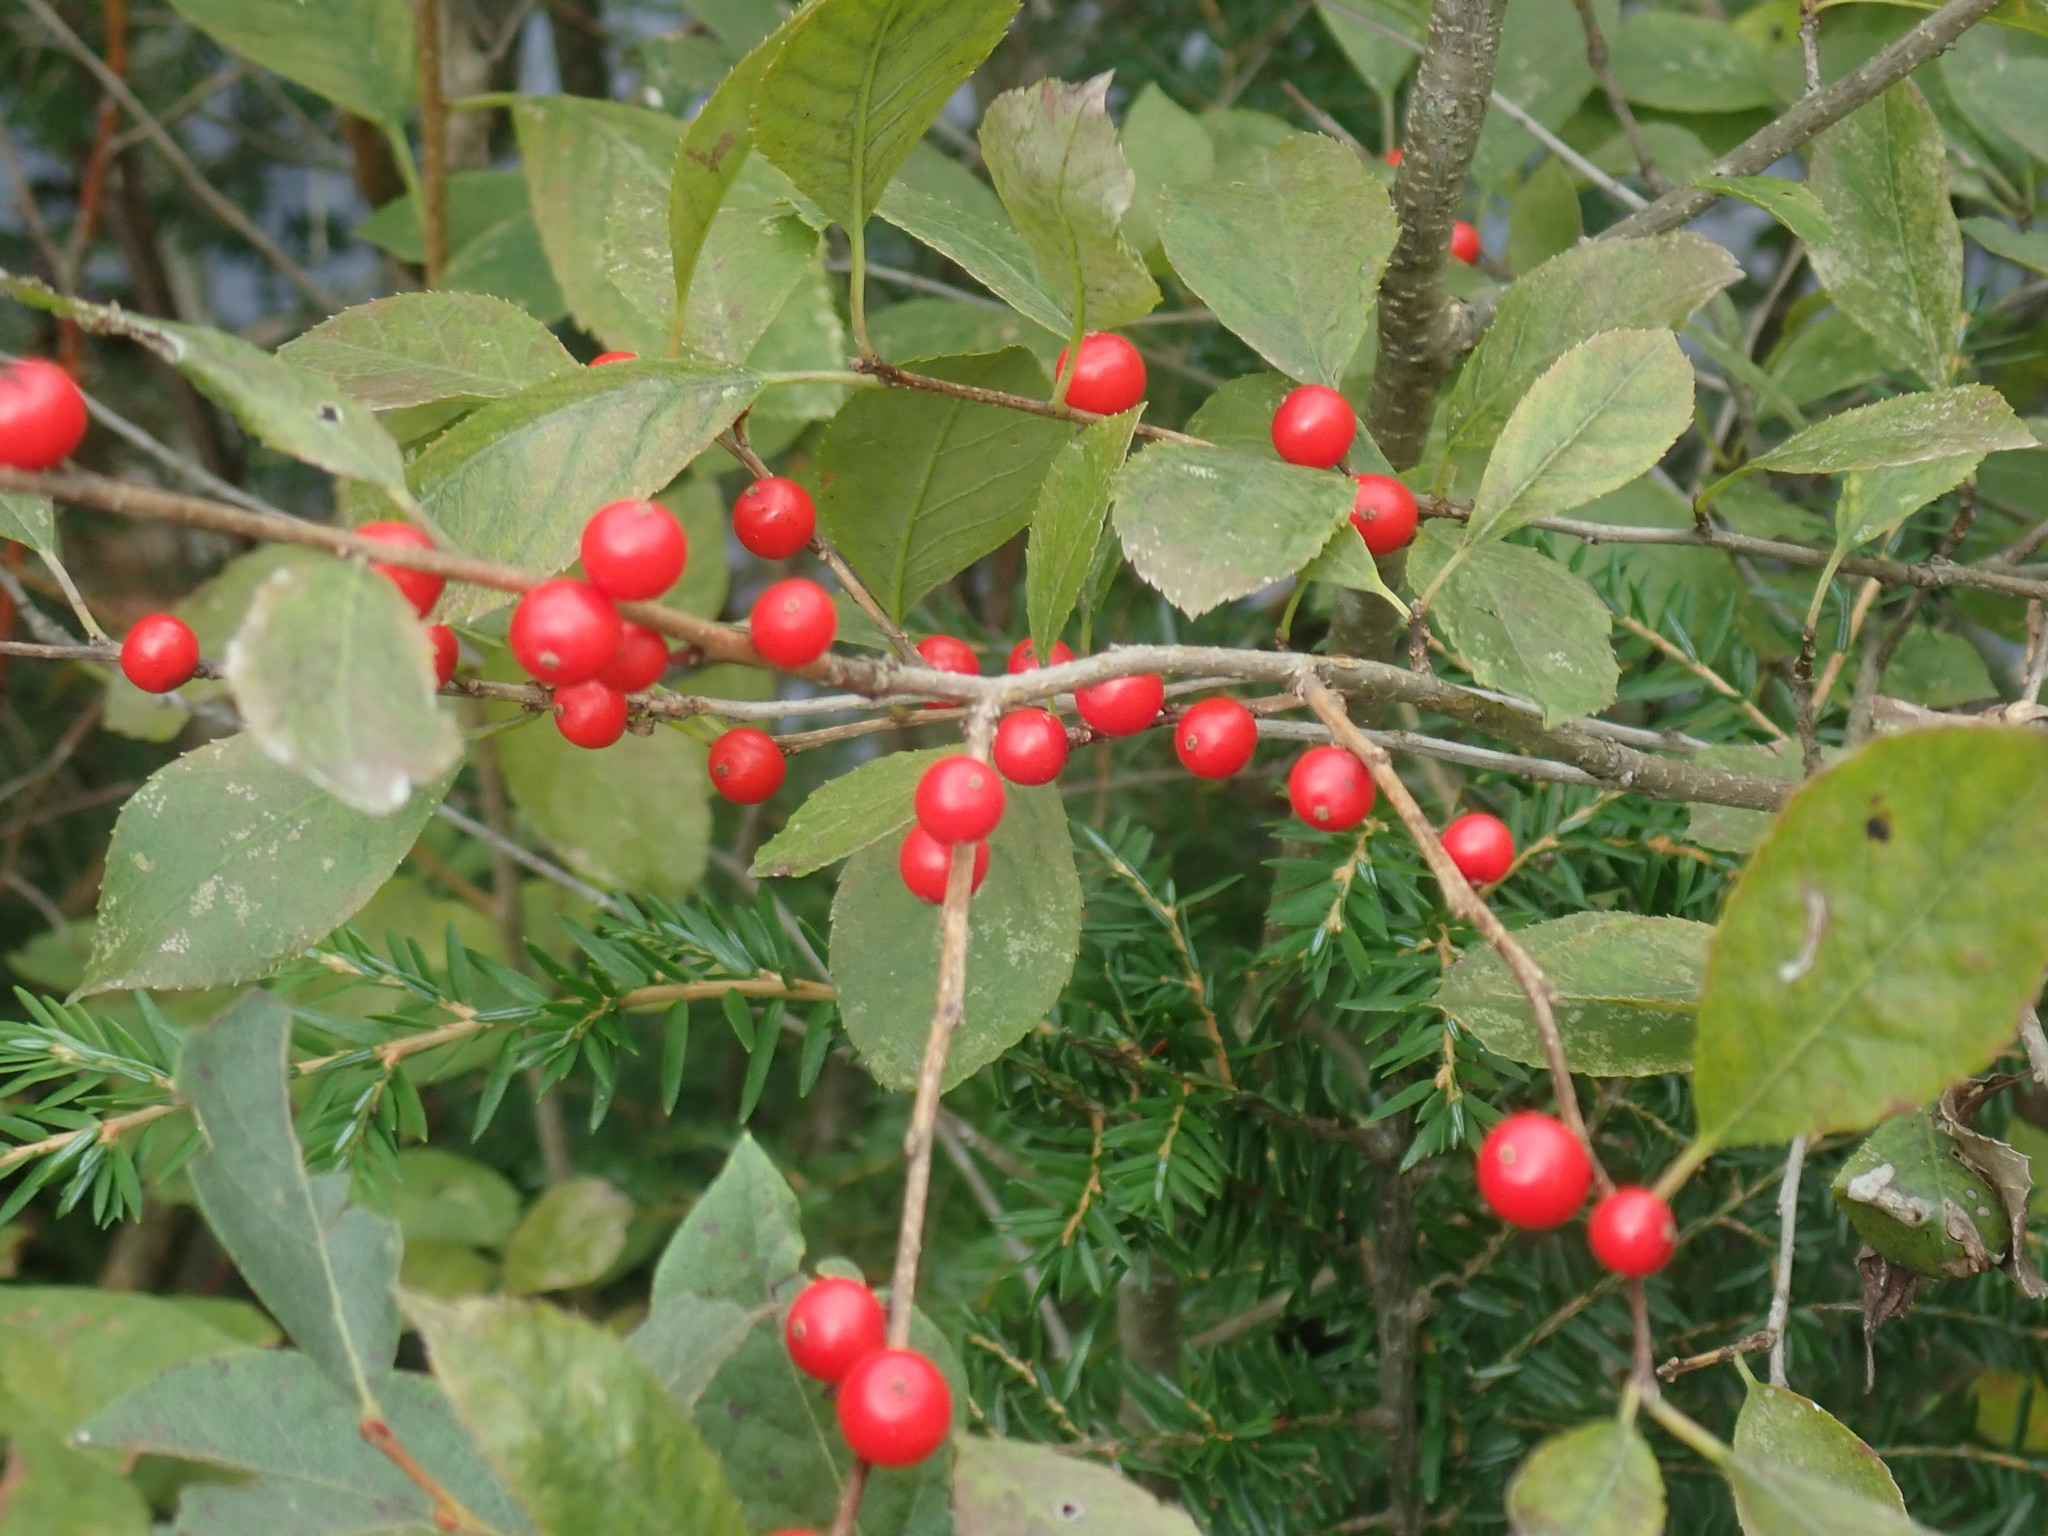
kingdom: Plantae
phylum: Tracheophyta
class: Magnoliopsida
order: Aquifoliales
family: Aquifoliaceae
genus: Ilex
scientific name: Ilex verticillata
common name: Virginia winterberry
